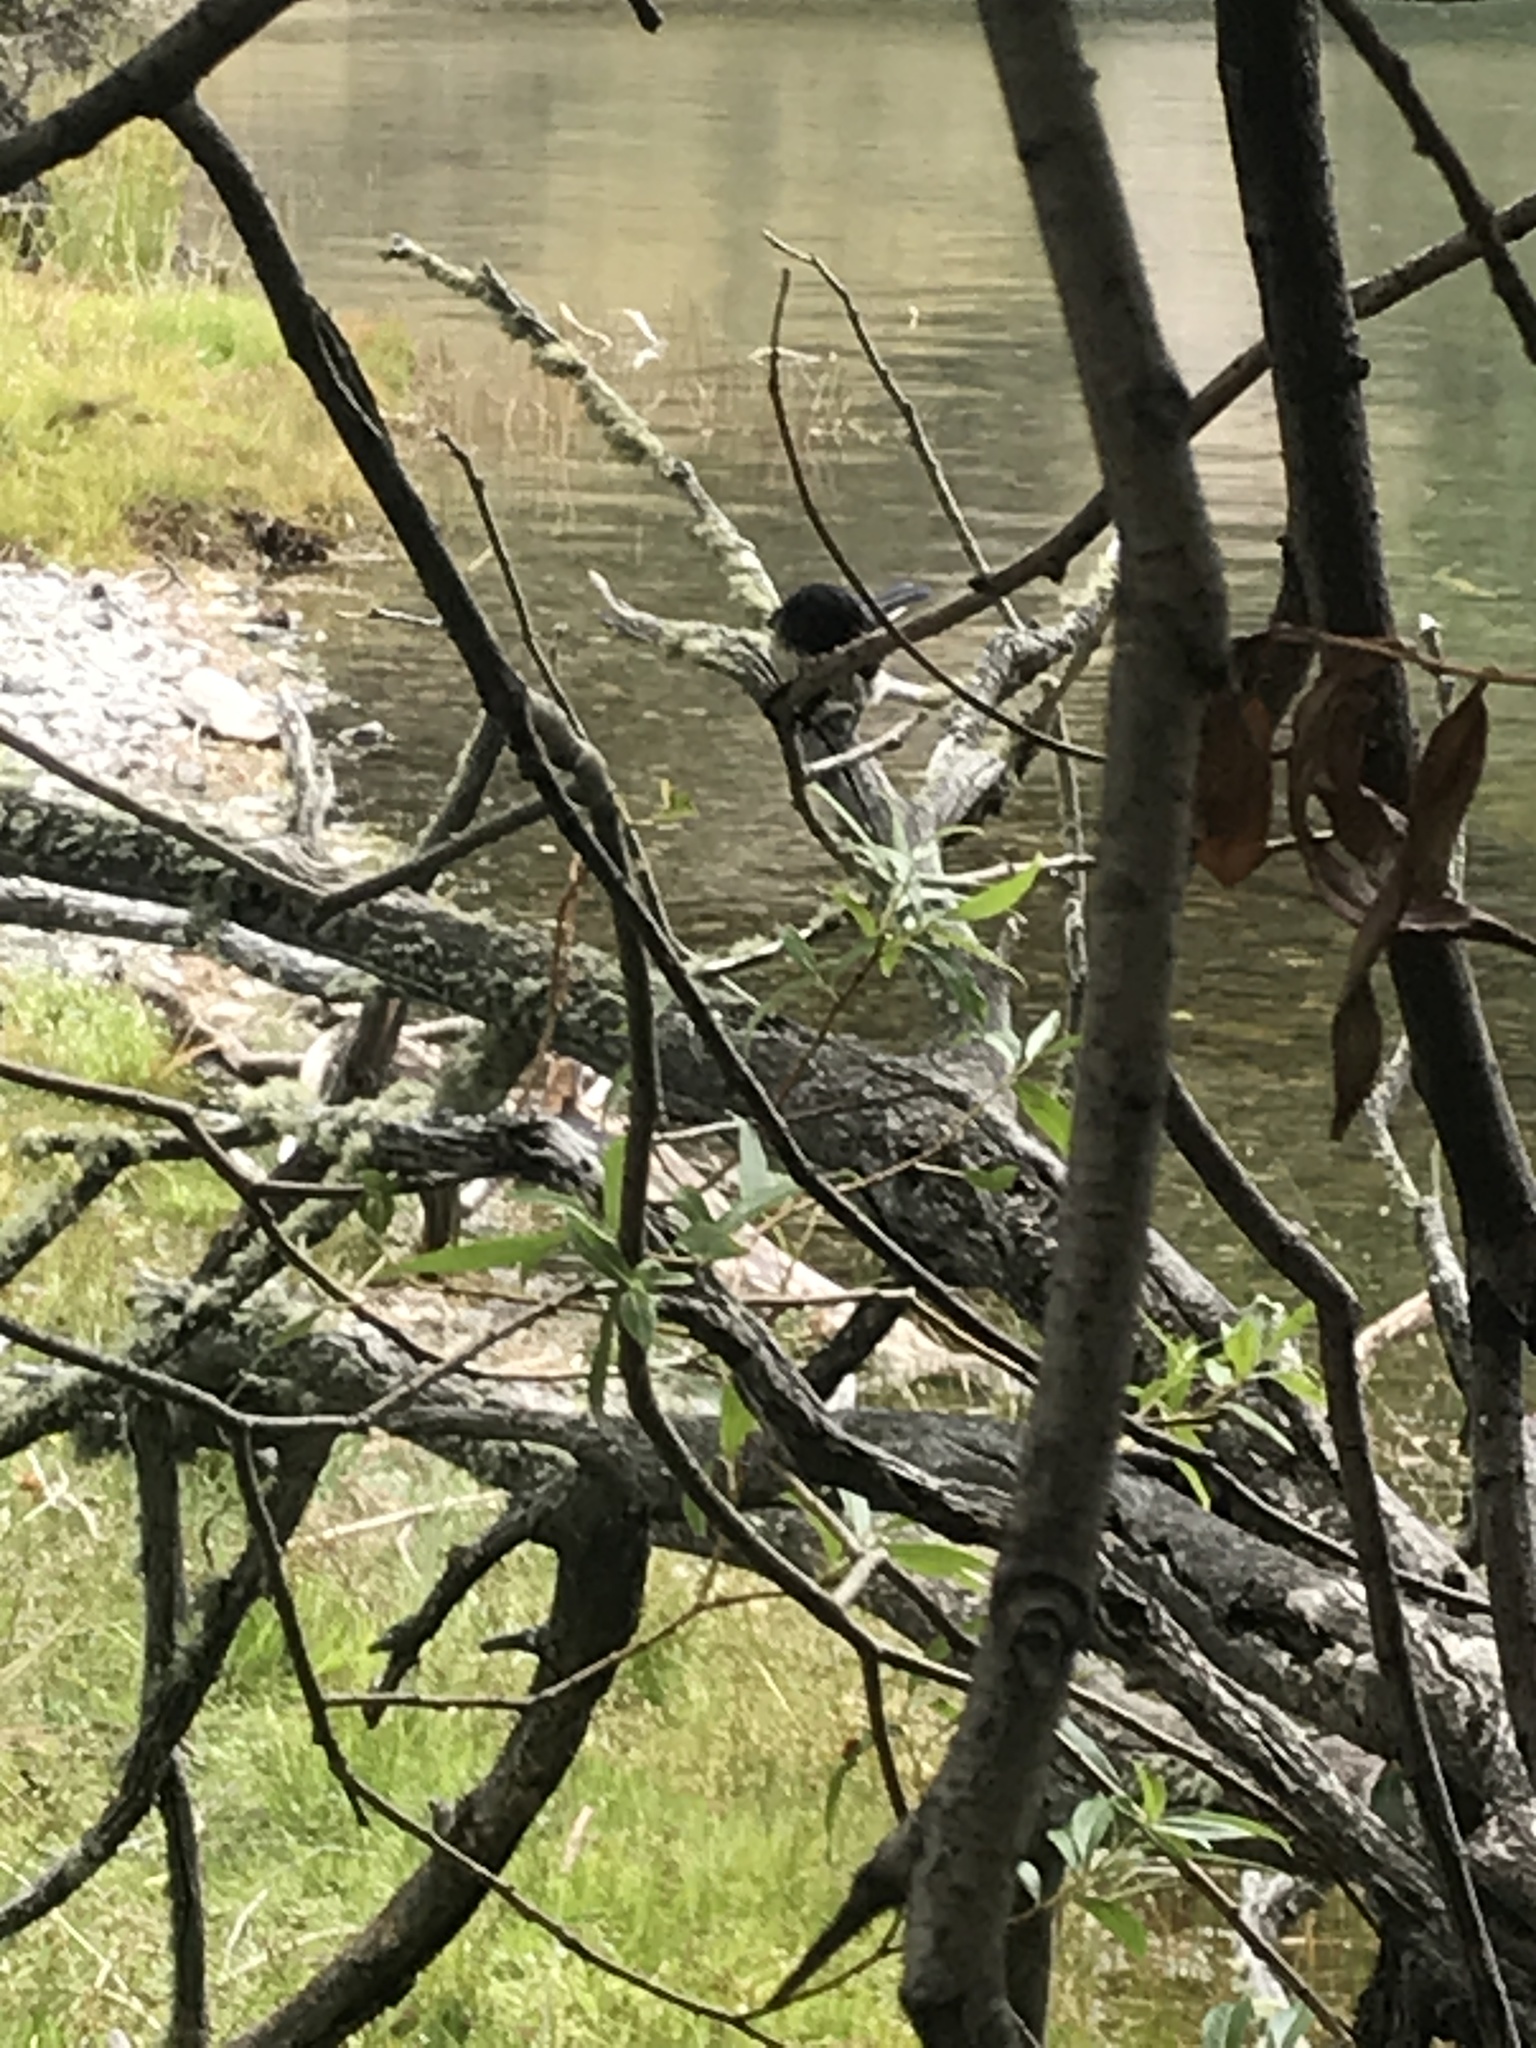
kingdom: Animalia
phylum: Chordata
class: Aves
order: Passeriformes
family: Petroicidae
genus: Petroica
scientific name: Petroica macrocephala
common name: Tomtit
